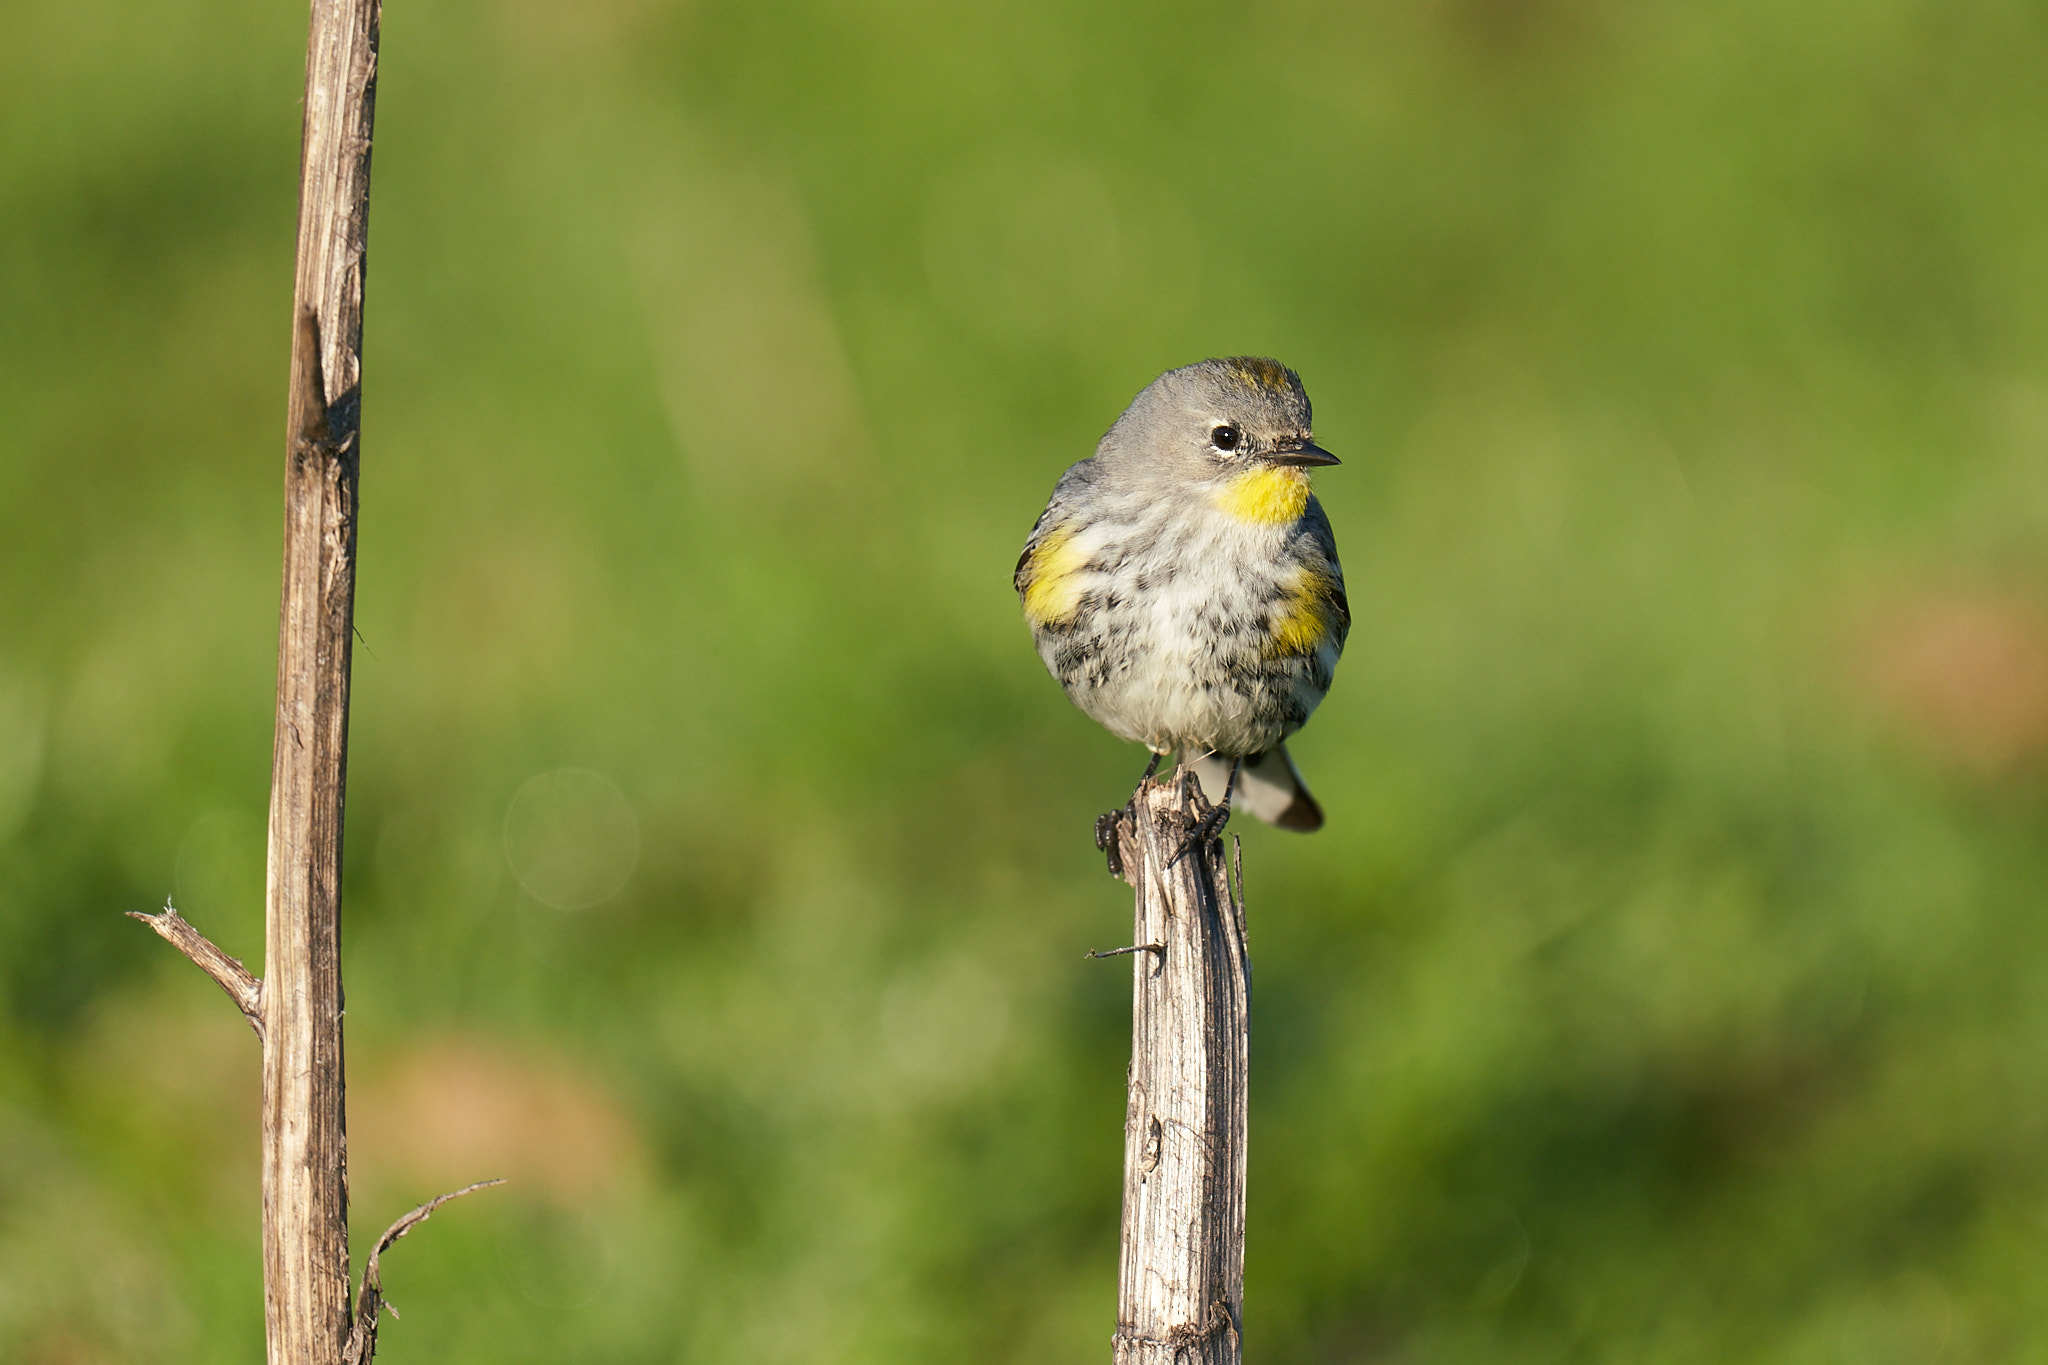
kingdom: Animalia
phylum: Chordata
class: Aves
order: Passeriformes
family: Parulidae
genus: Setophaga
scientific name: Setophaga coronata
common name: Myrtle warbler
